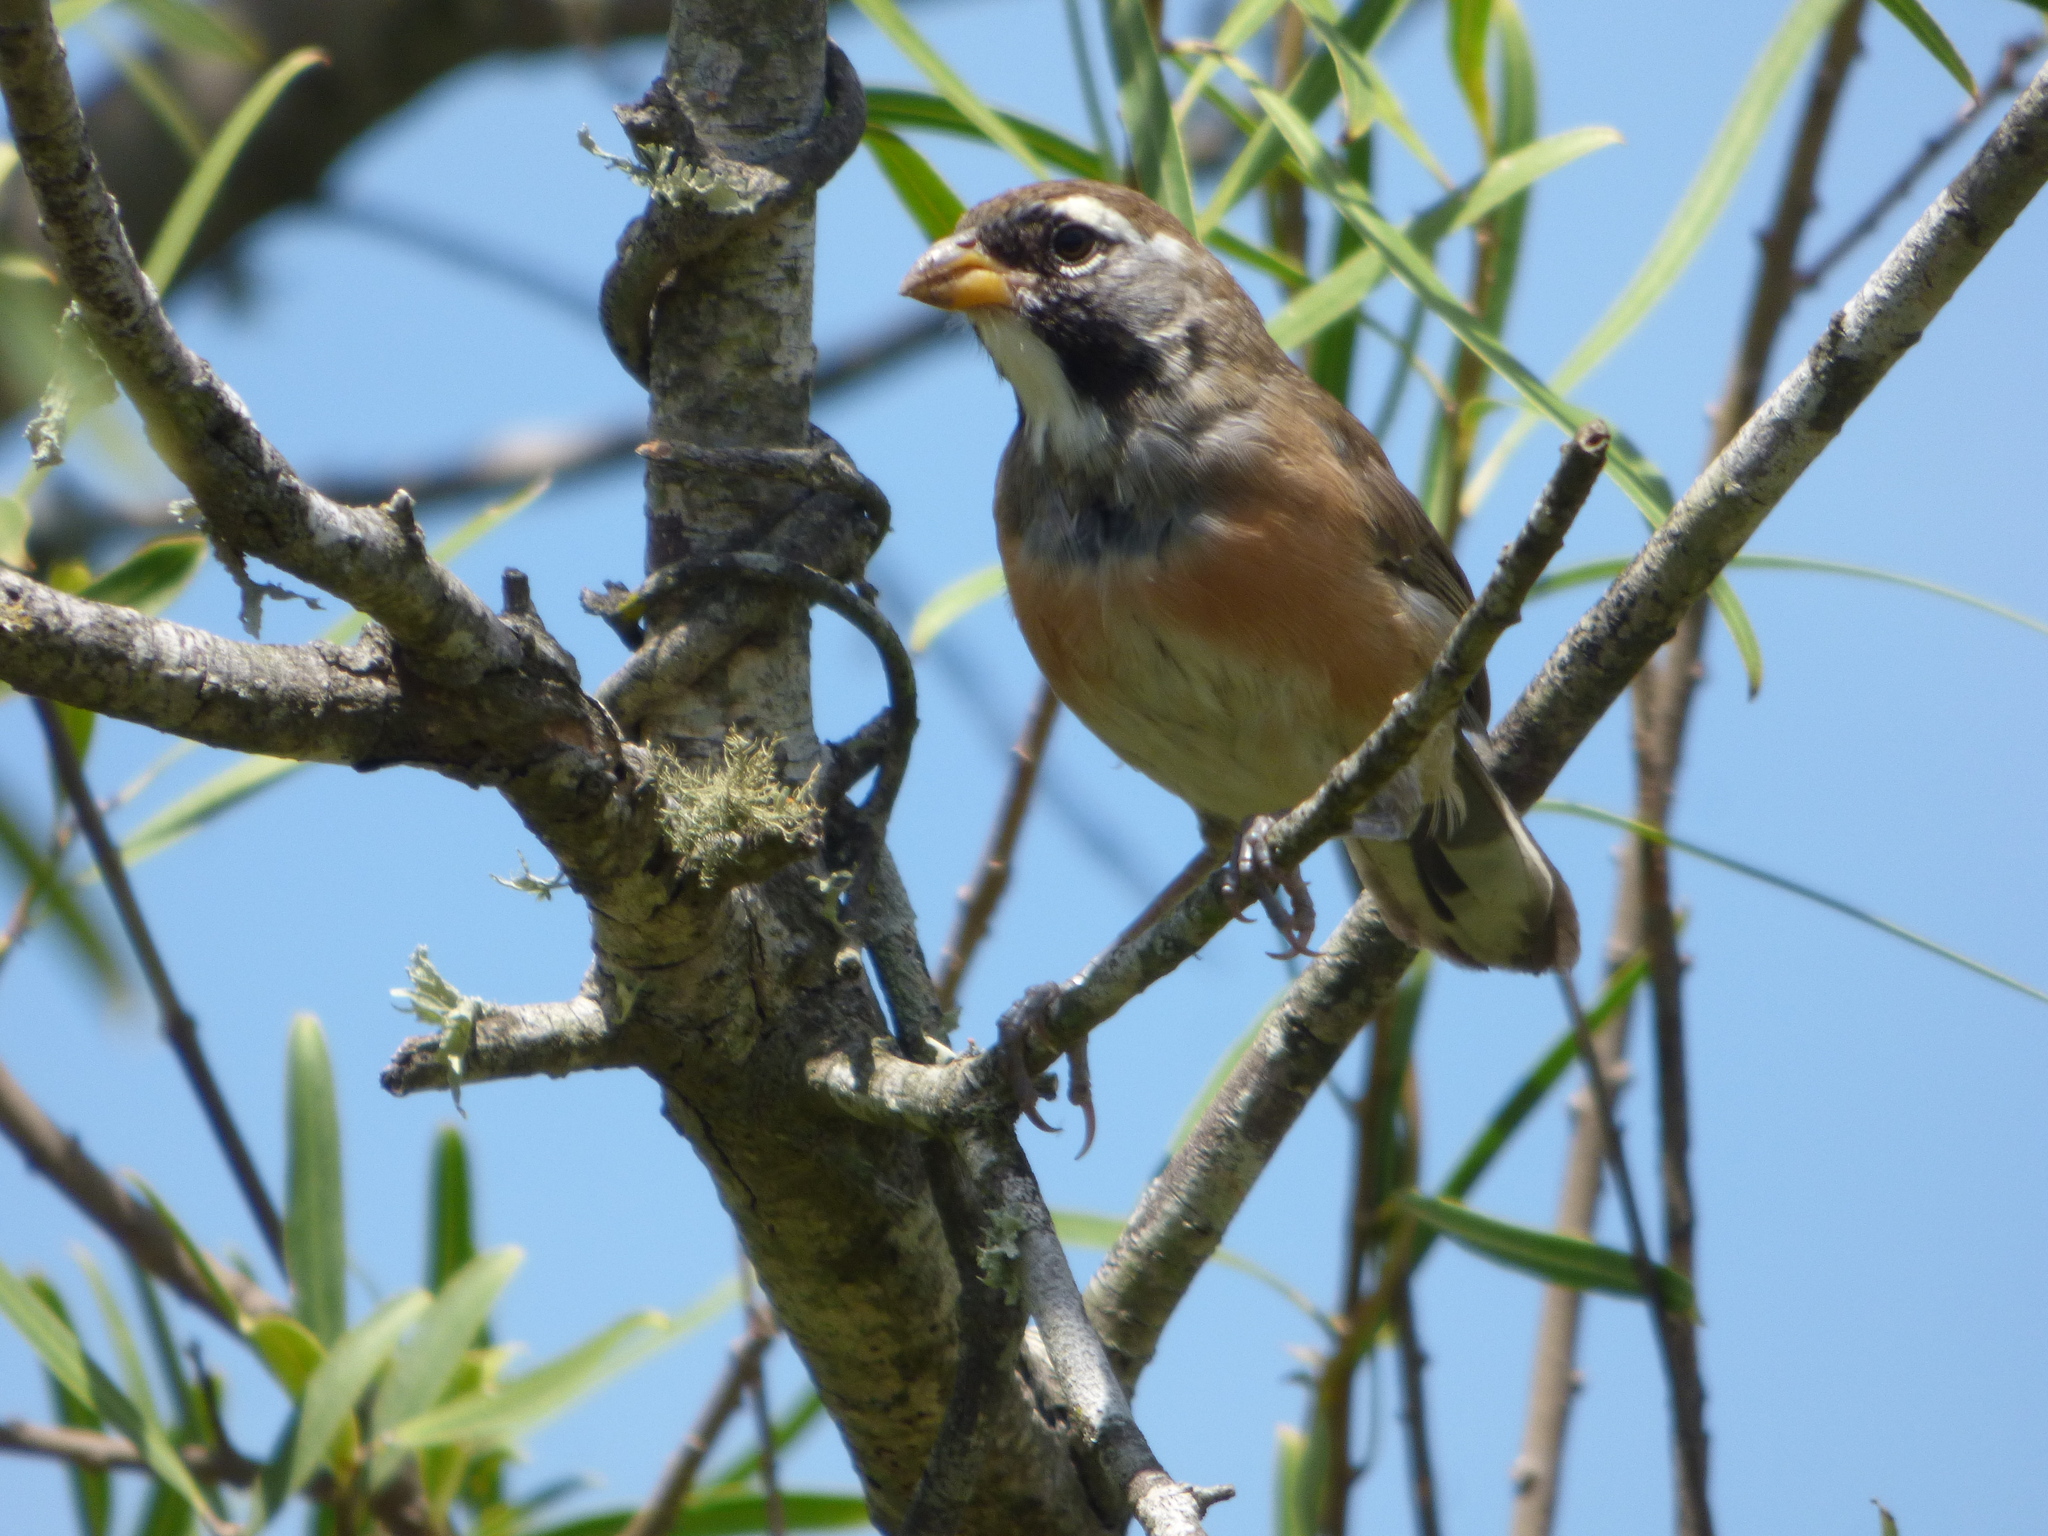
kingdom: Animalia
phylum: Chordata
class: Aves
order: Passeriformes
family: Thraupidae
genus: Saltatricula
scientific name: Saltatricula multicolor
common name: Many-colored chaco finch
